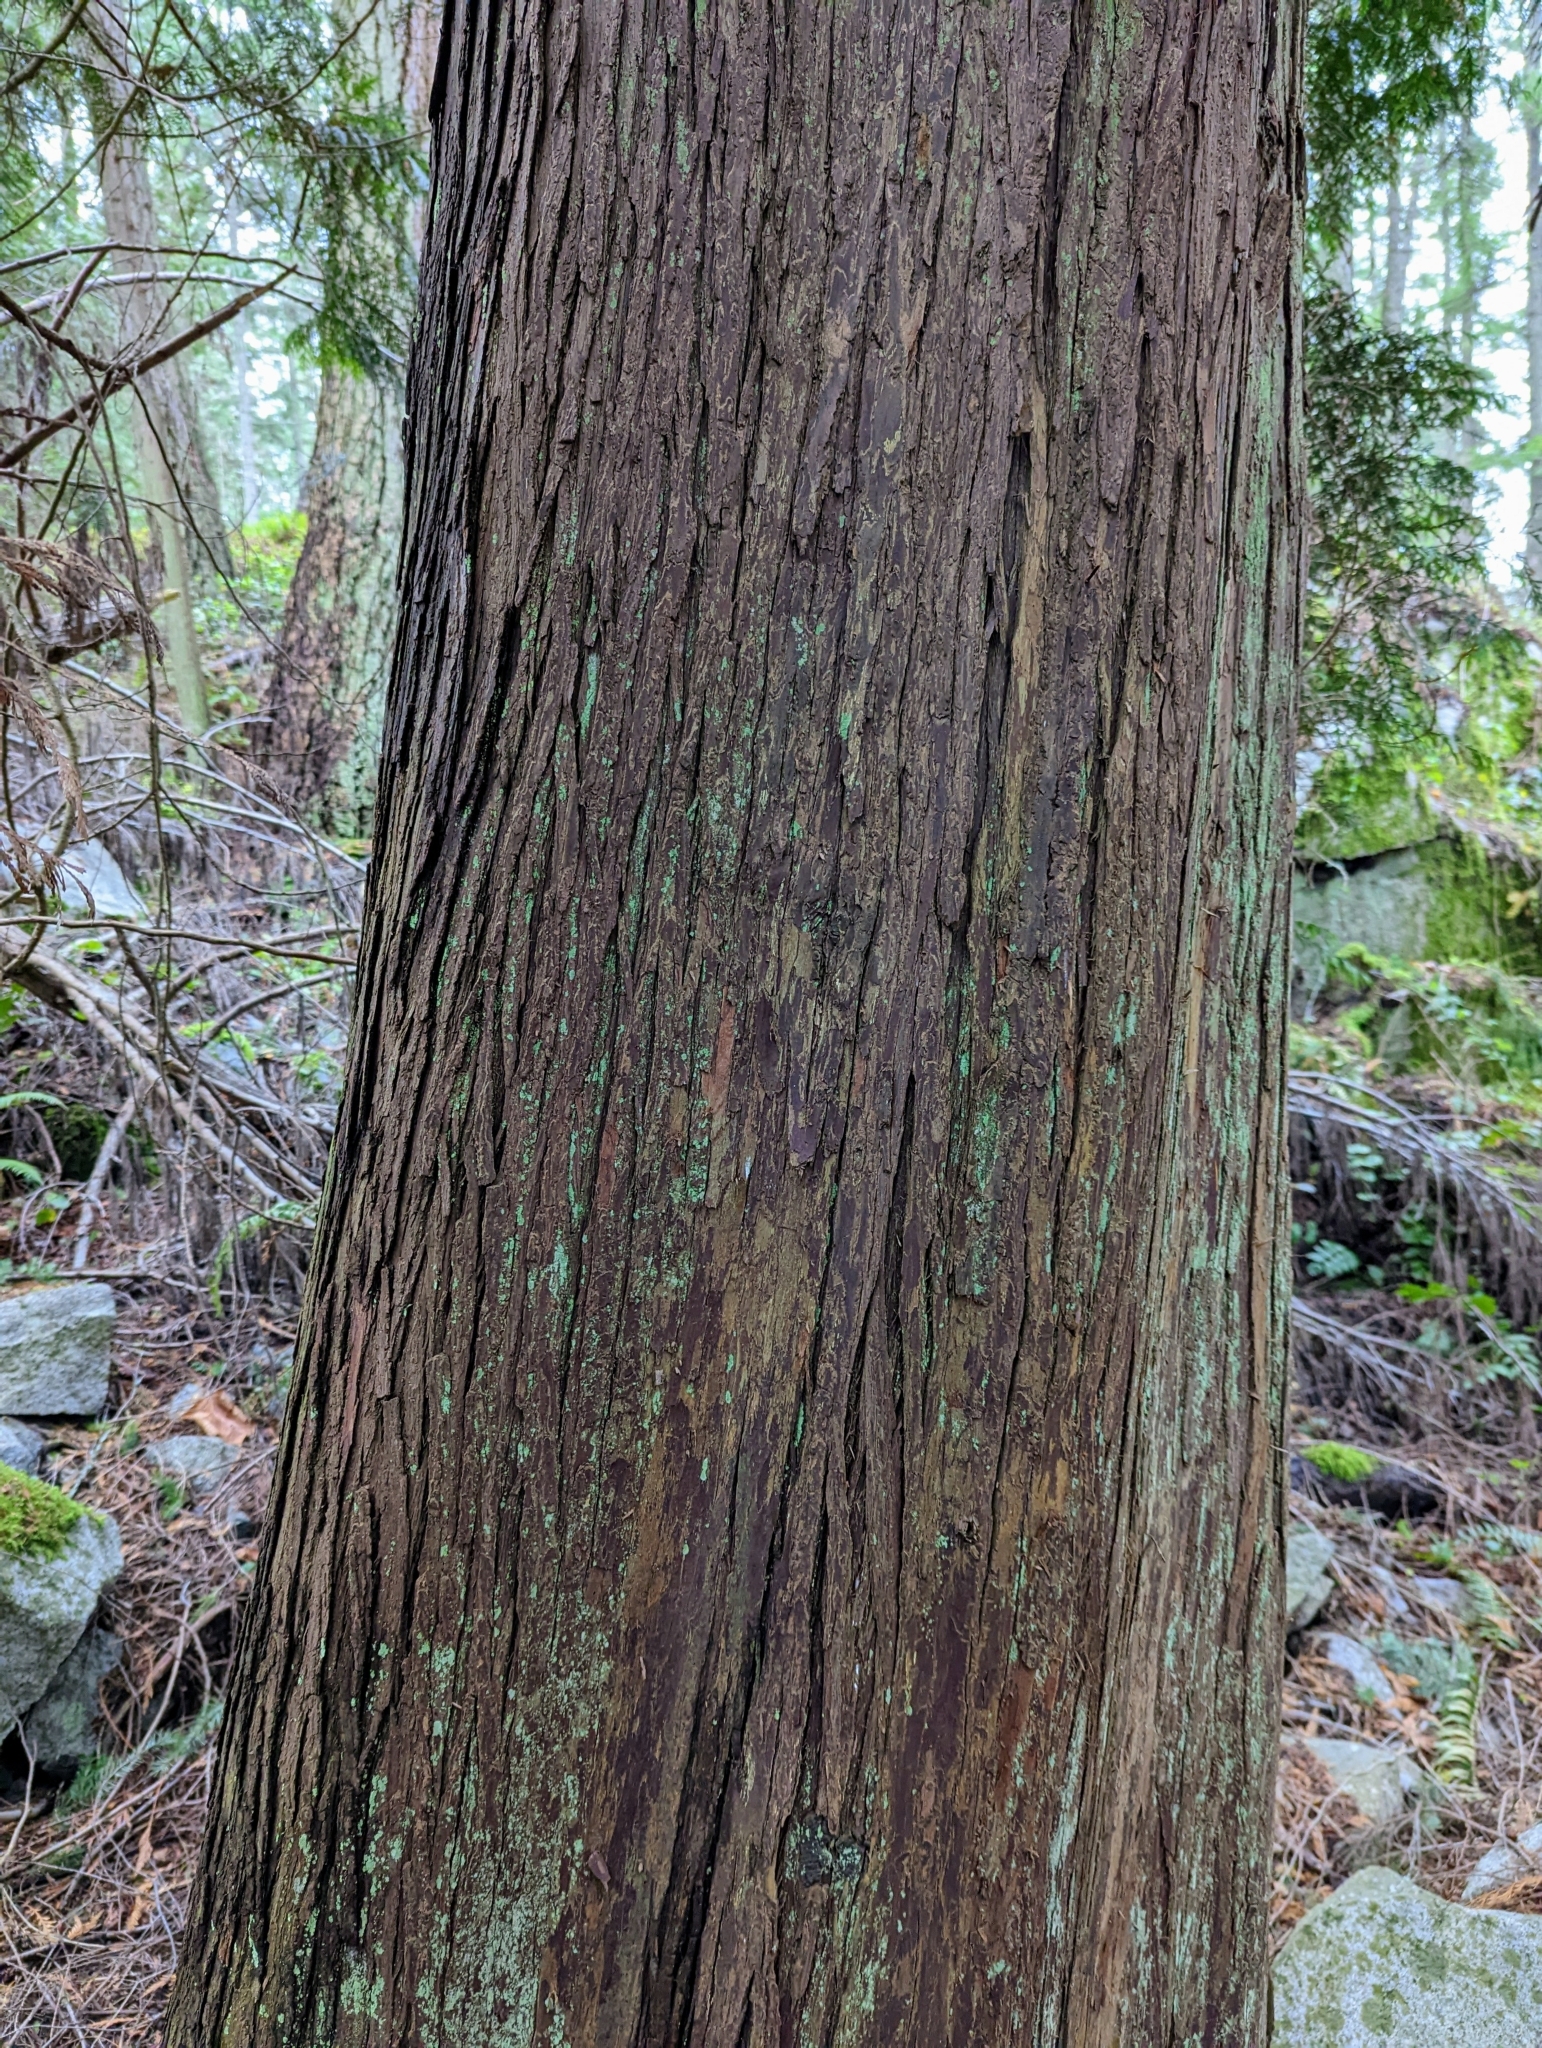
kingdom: Plantae
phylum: Tracheophyta
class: Pinopsida
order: Pinales
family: Cupressaceae
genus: Thuja
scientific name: Thuja plicata
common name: Western red-cedar
